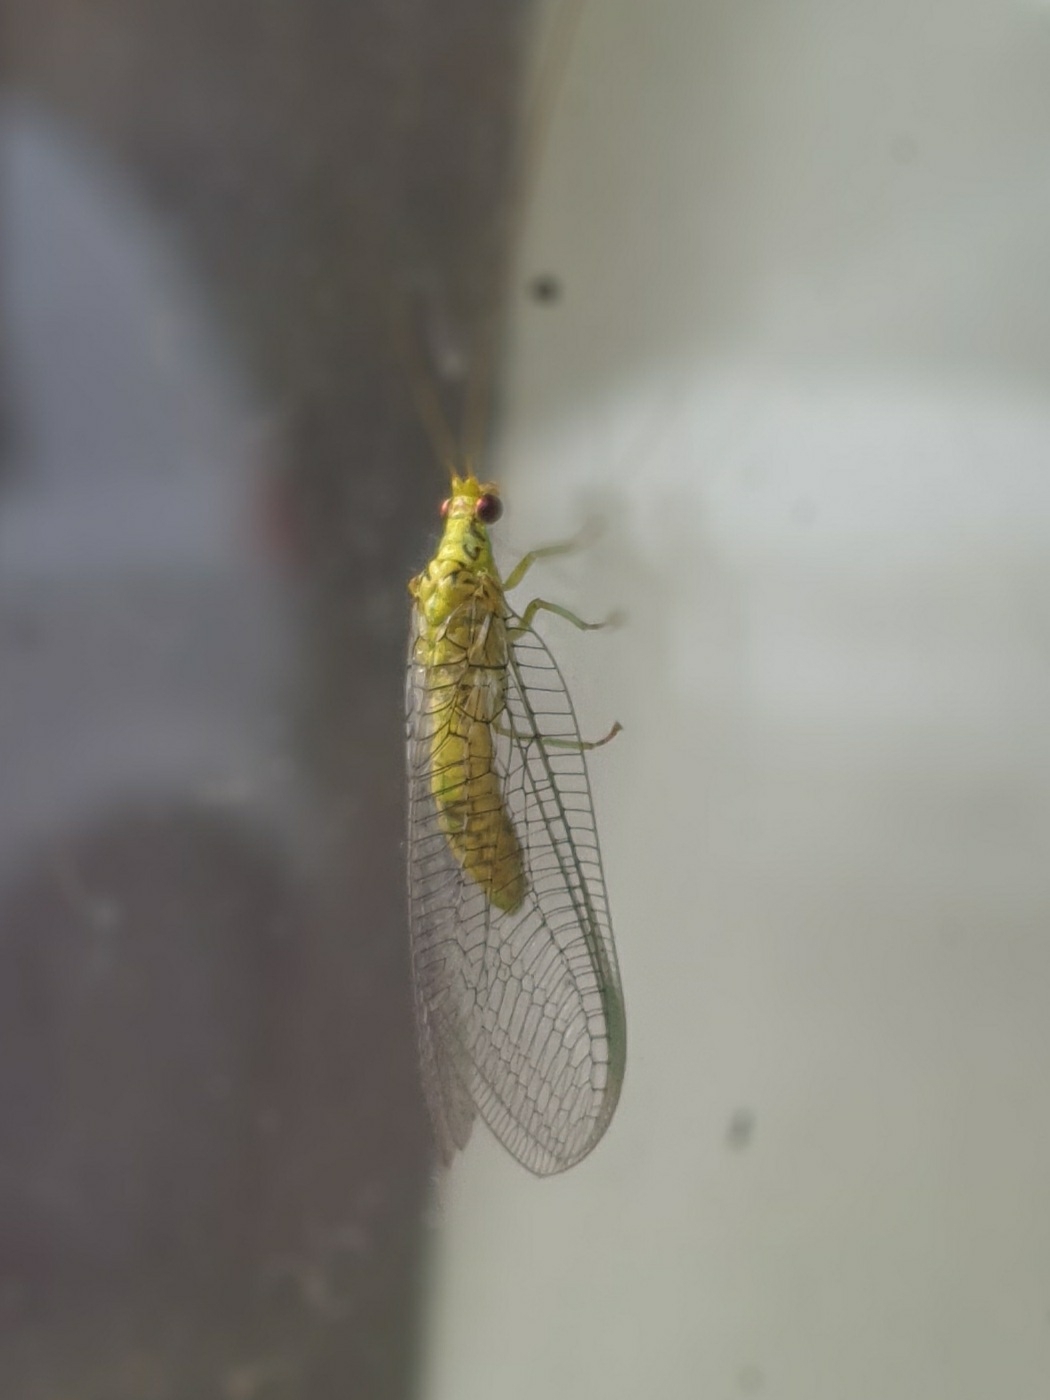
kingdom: Animalia
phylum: Arthropoda
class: Insecta
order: Neuroptera
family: Chrysopidae
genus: Italochrysa
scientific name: Italochrysa insignis
